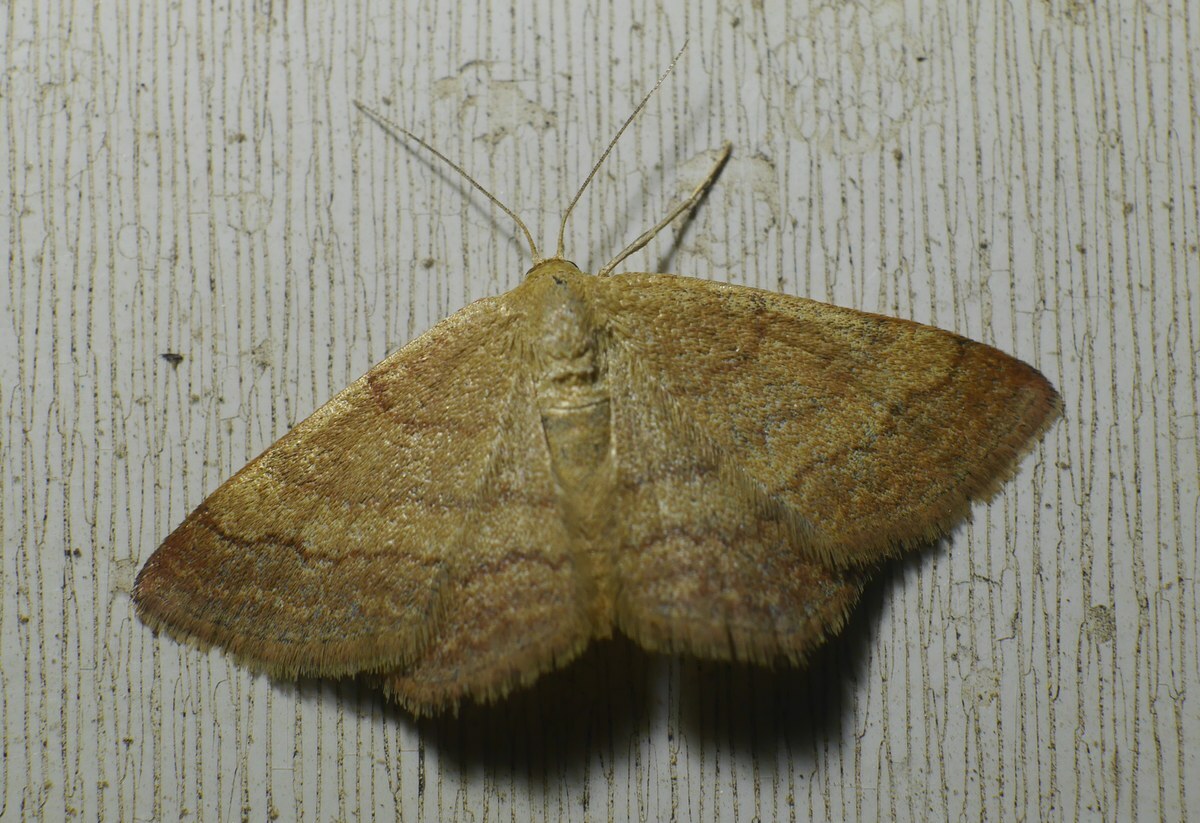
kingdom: Animalia
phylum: Arthropoda
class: Insecta
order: Lepidoptera
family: Geometridae
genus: Scopula
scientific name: Scopula rubiginata
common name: Tawny wave
